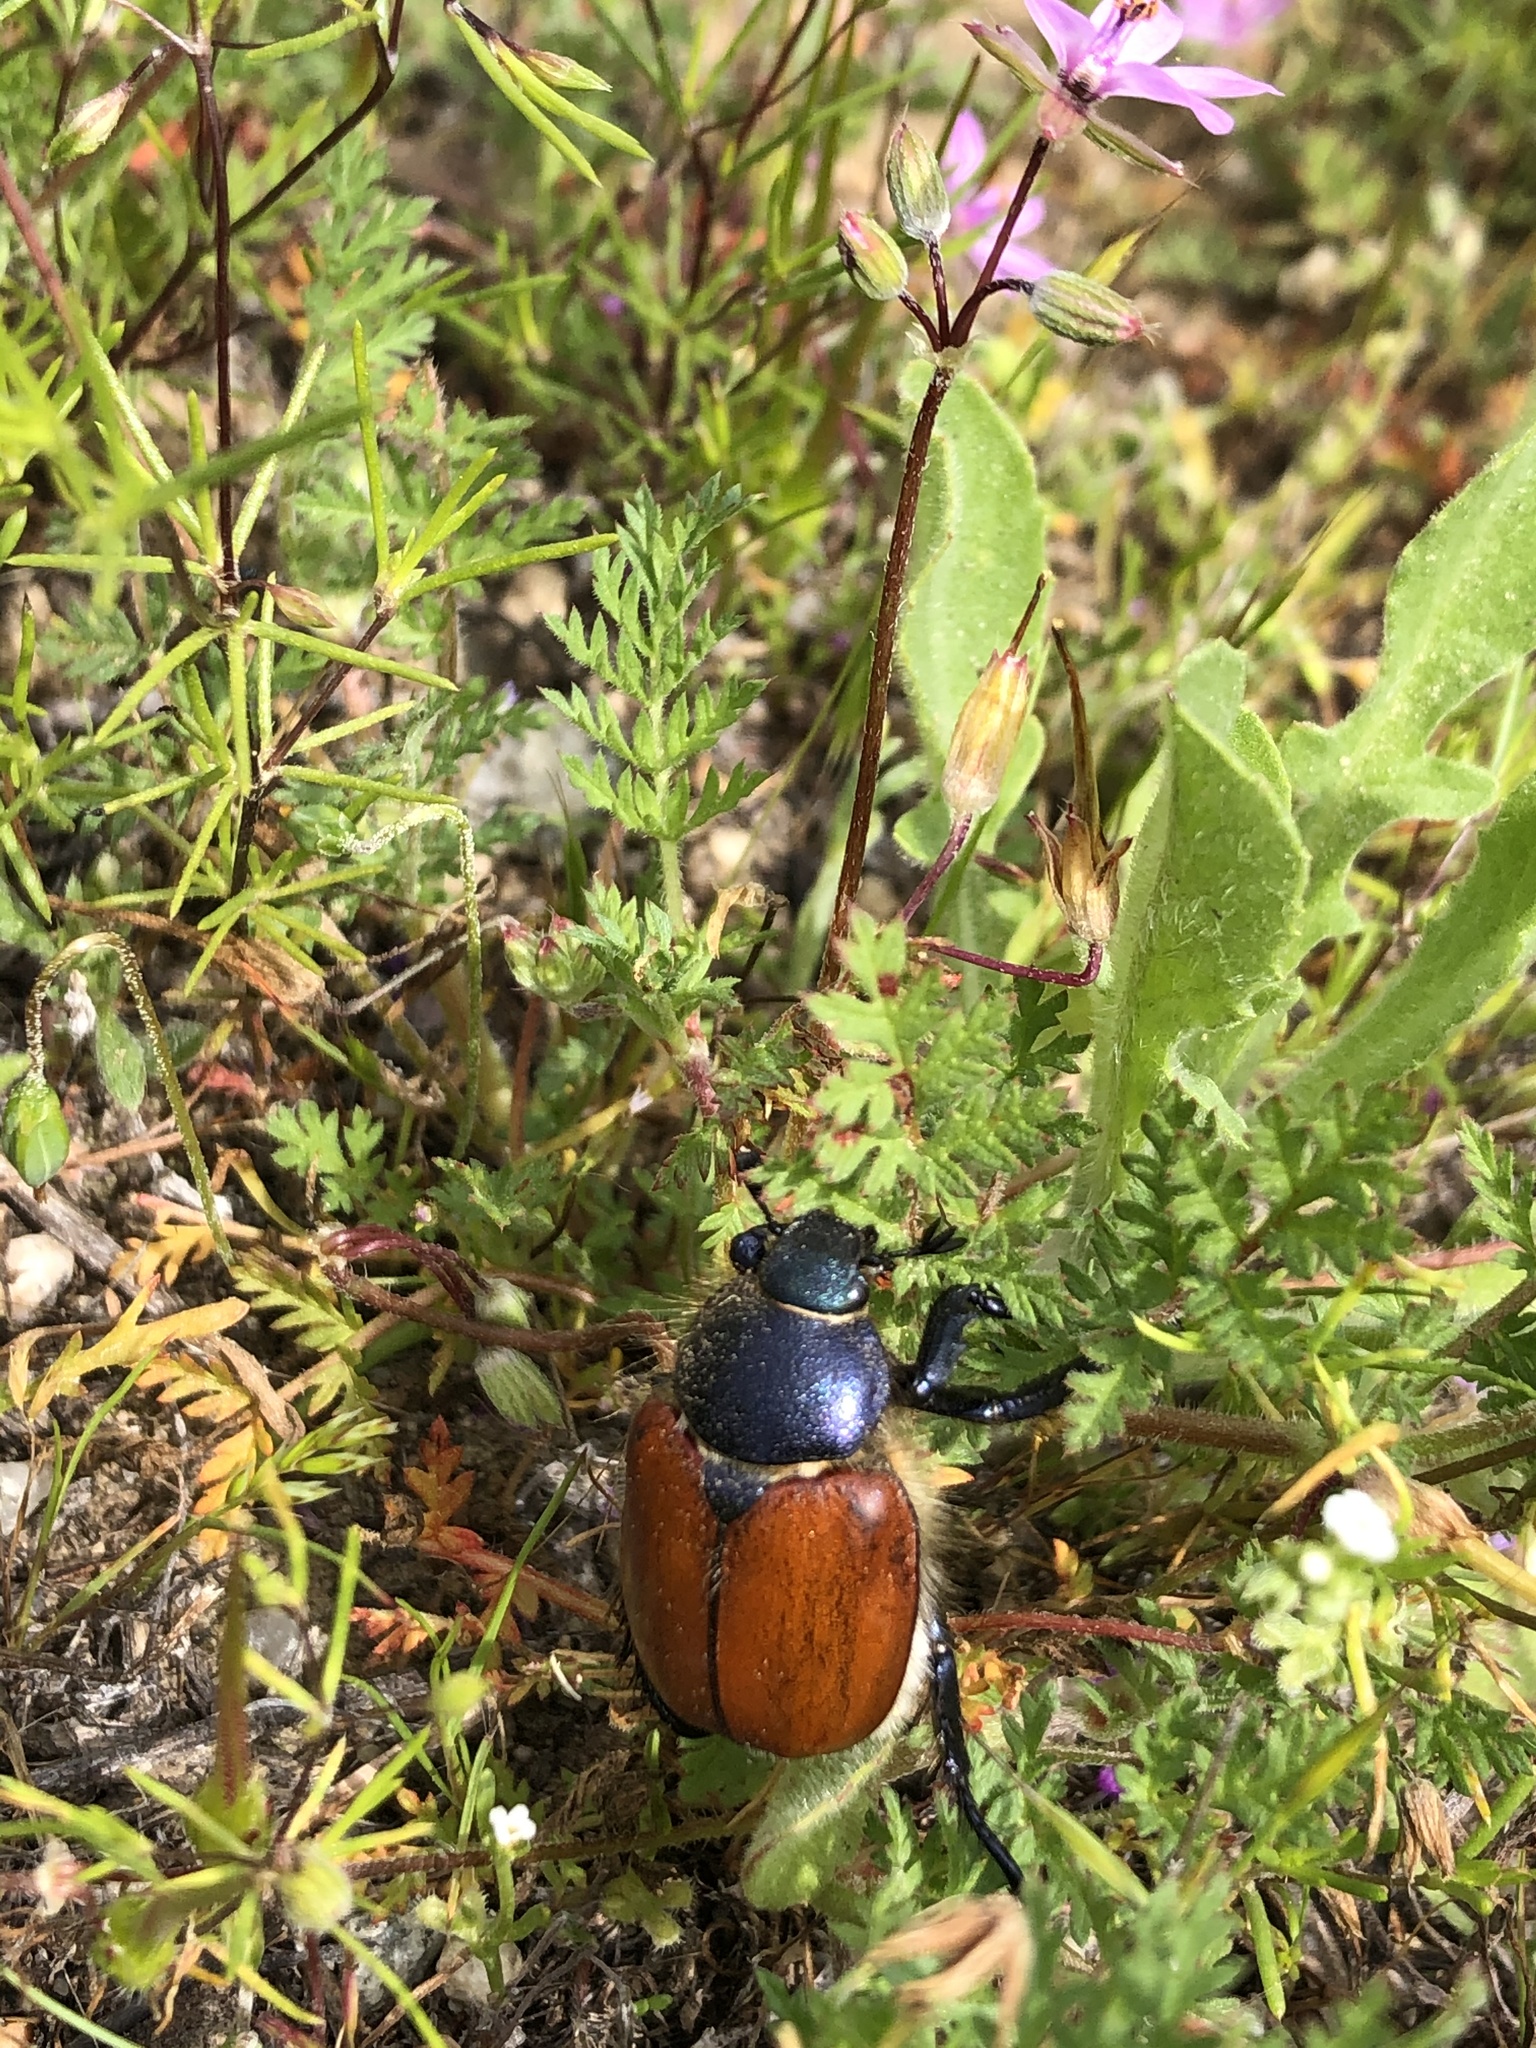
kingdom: Animalia
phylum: Arthropoda
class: Insecta
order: Coleoptera
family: Scarabaeidae
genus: Paracotalpa
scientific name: Paracotalpa ursina
